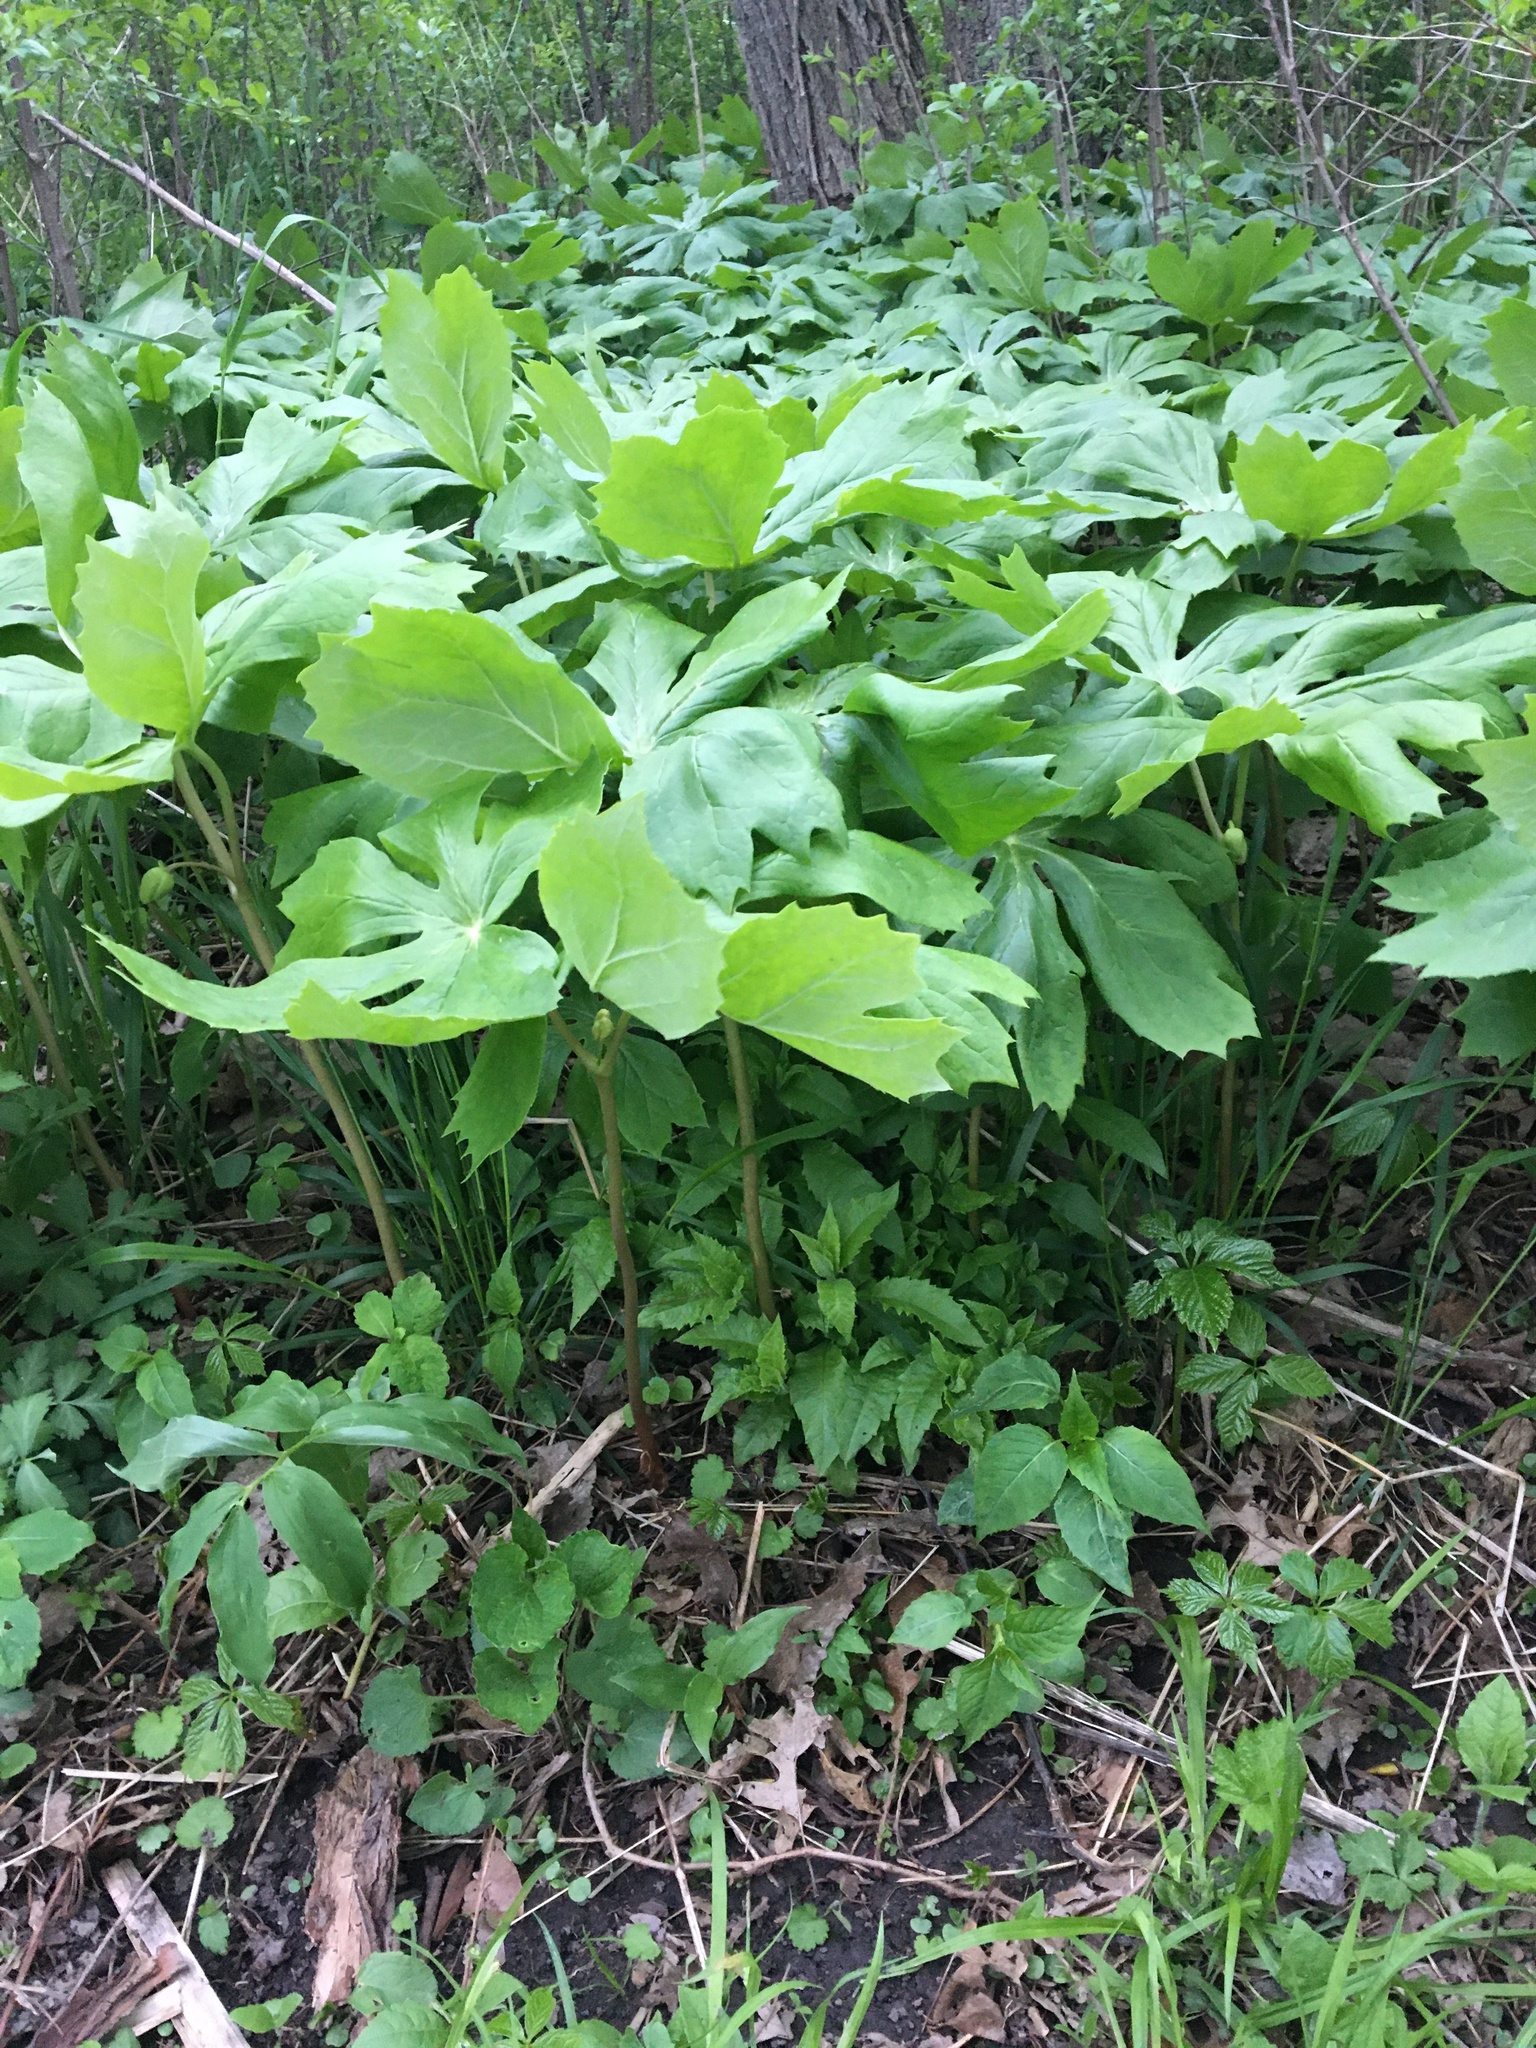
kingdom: Plantae
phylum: Tracheophyta
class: Magnoliopsida
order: Ranunculales
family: Berberidaceae
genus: Podophyllum
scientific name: Podophyllum peltatum
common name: Wild mandrake
